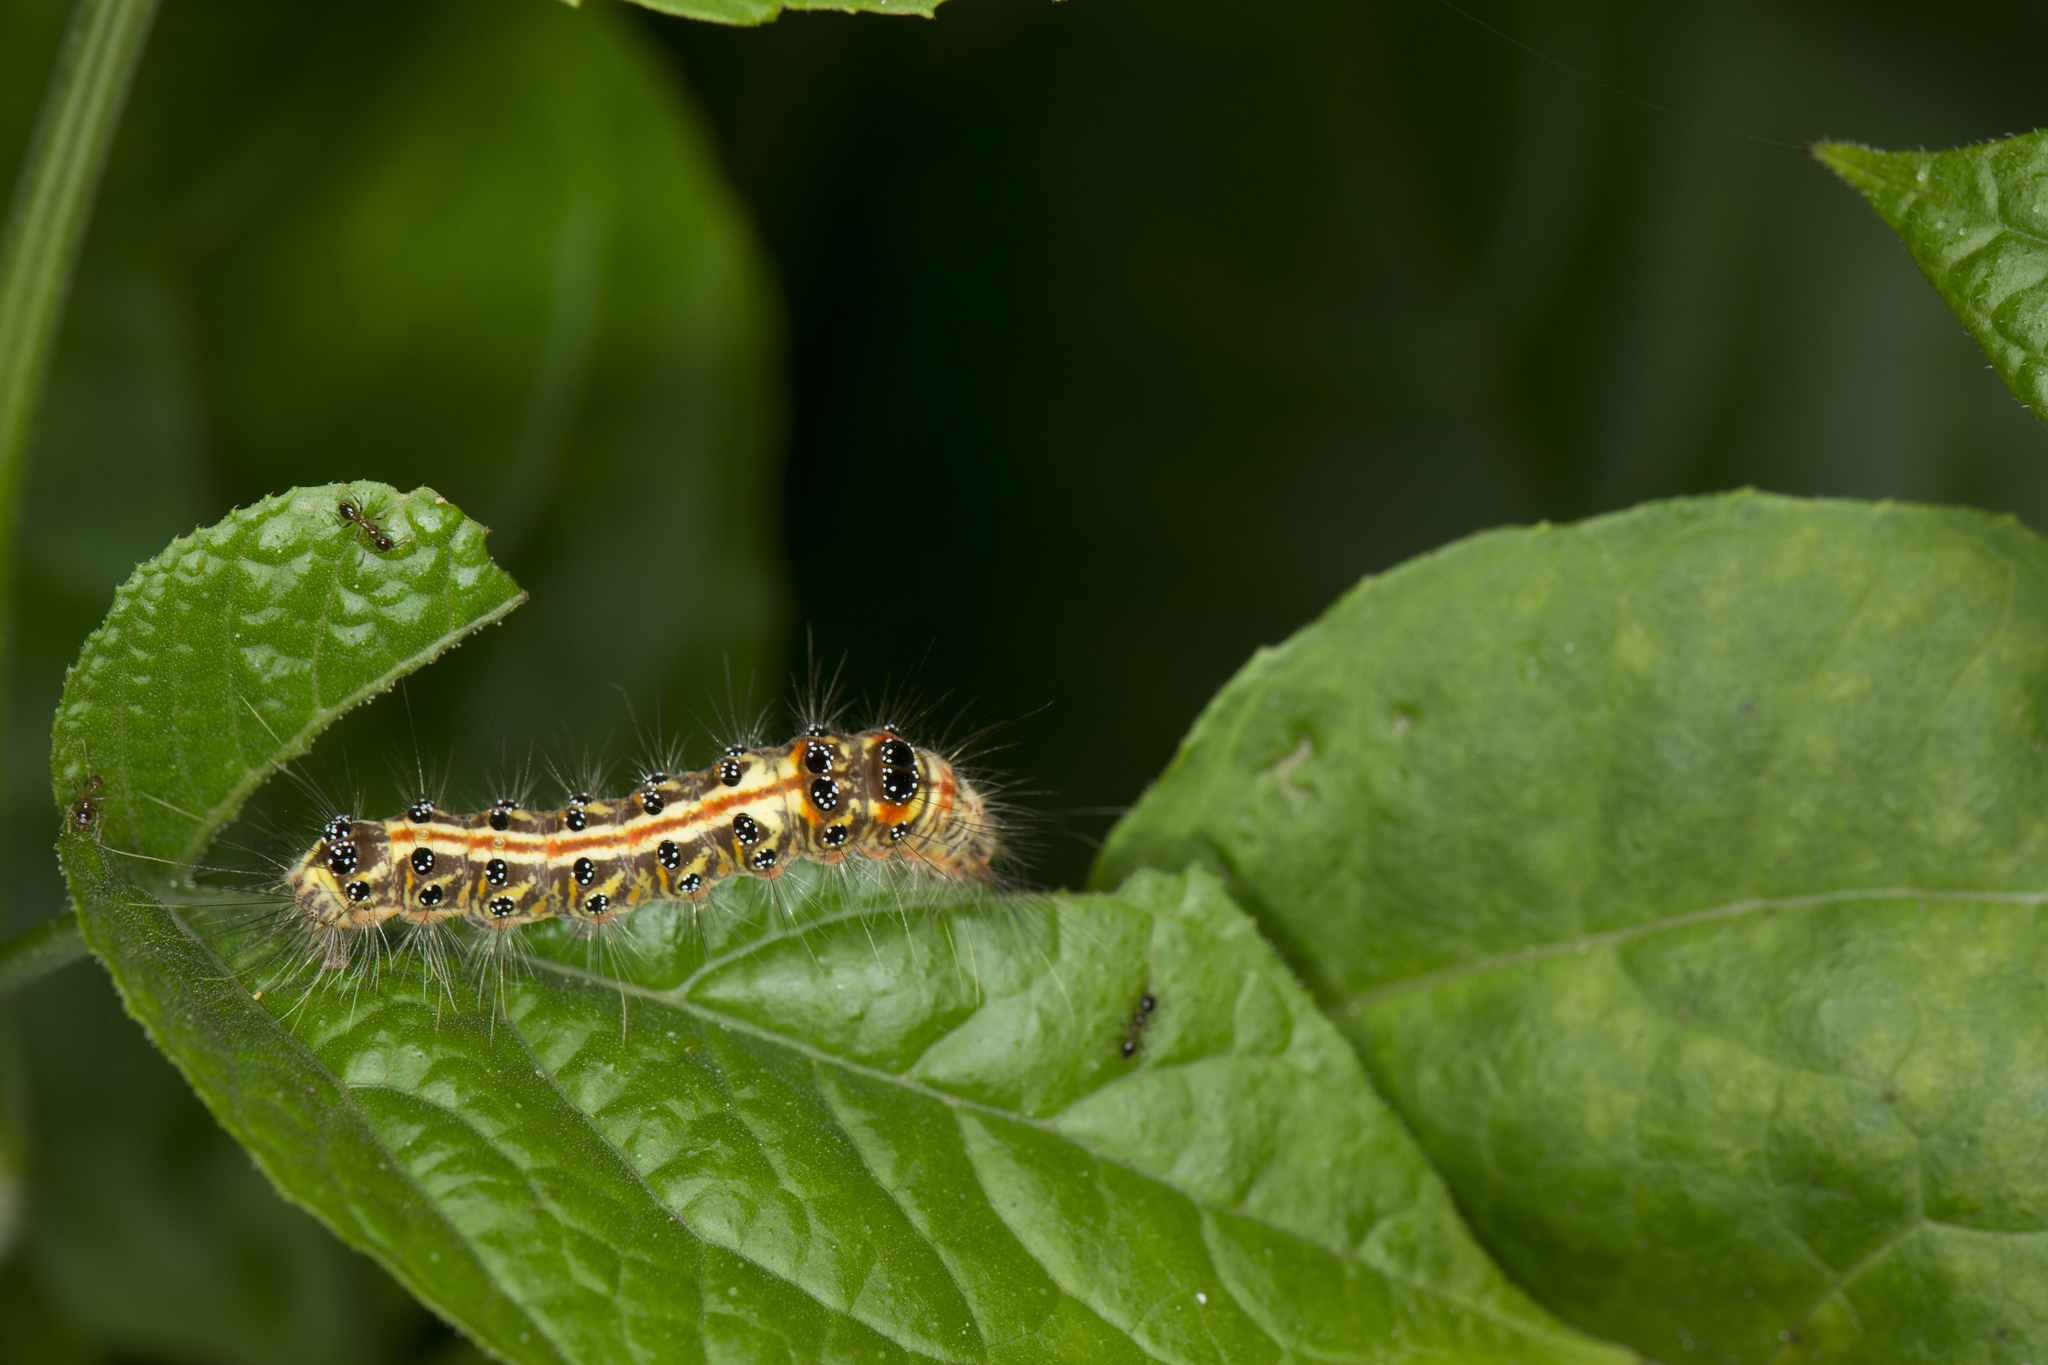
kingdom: Animalia
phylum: Arthropoda
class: Insecta
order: Lepidoptera
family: Erebidae
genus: Euproctis
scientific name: Euproctis taiwana
